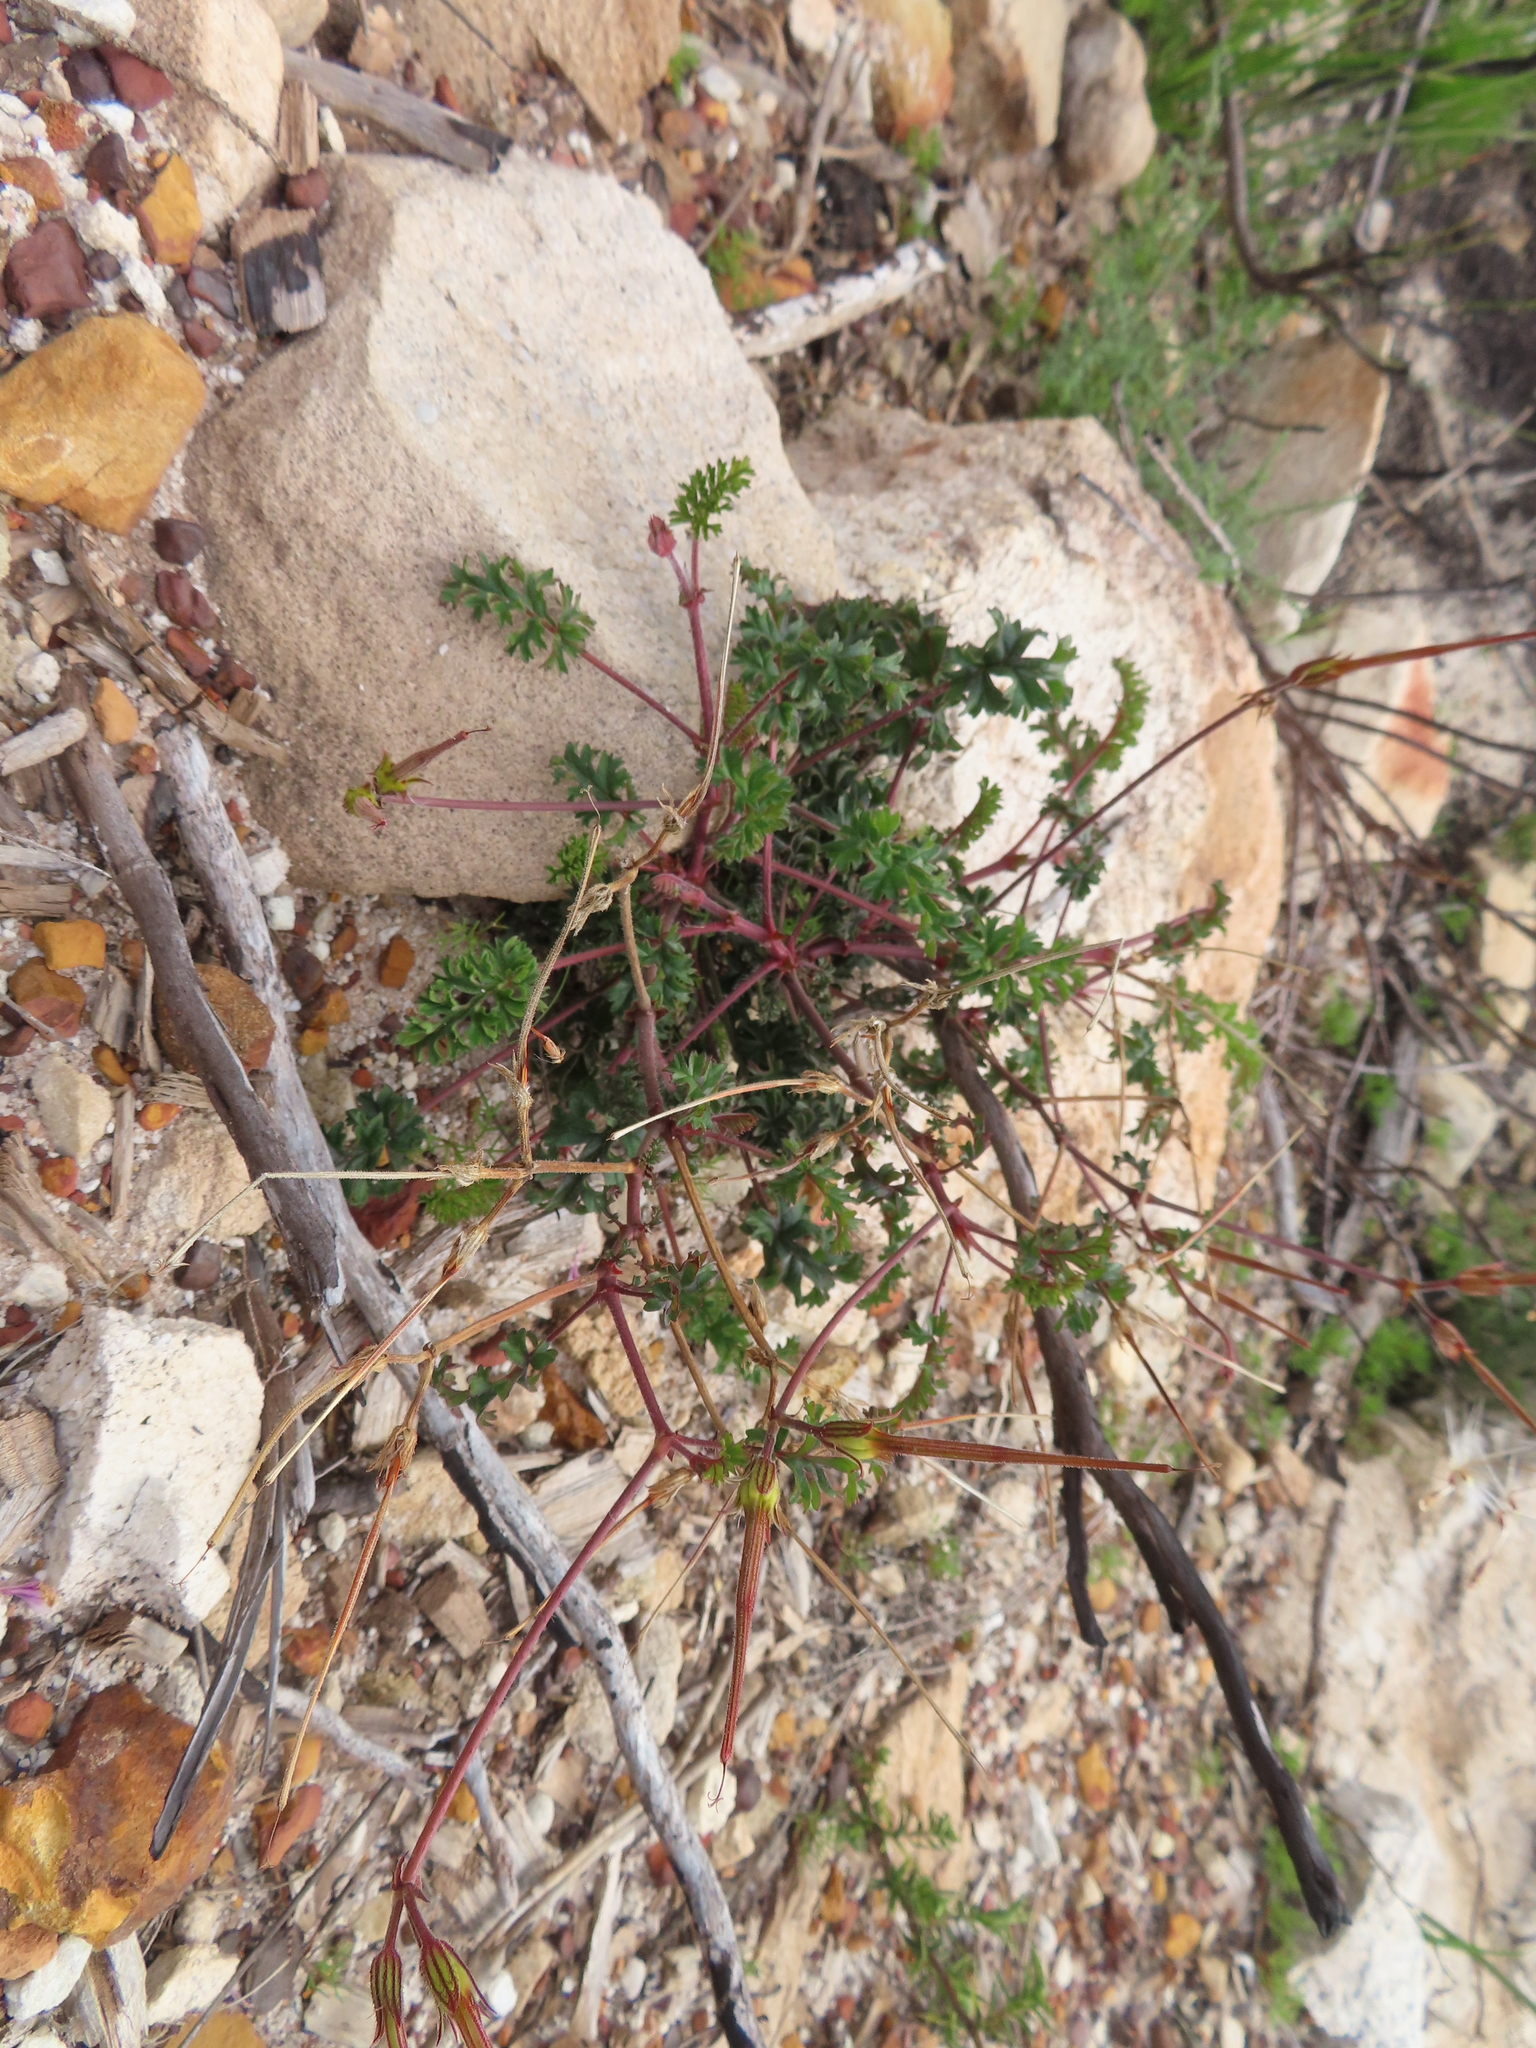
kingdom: Plantae
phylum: Tracheophyta
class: Magnoliopsida
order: Geraniales
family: Geraniaceae
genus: Pelargonium
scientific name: Pelargonium myrrhifolium
